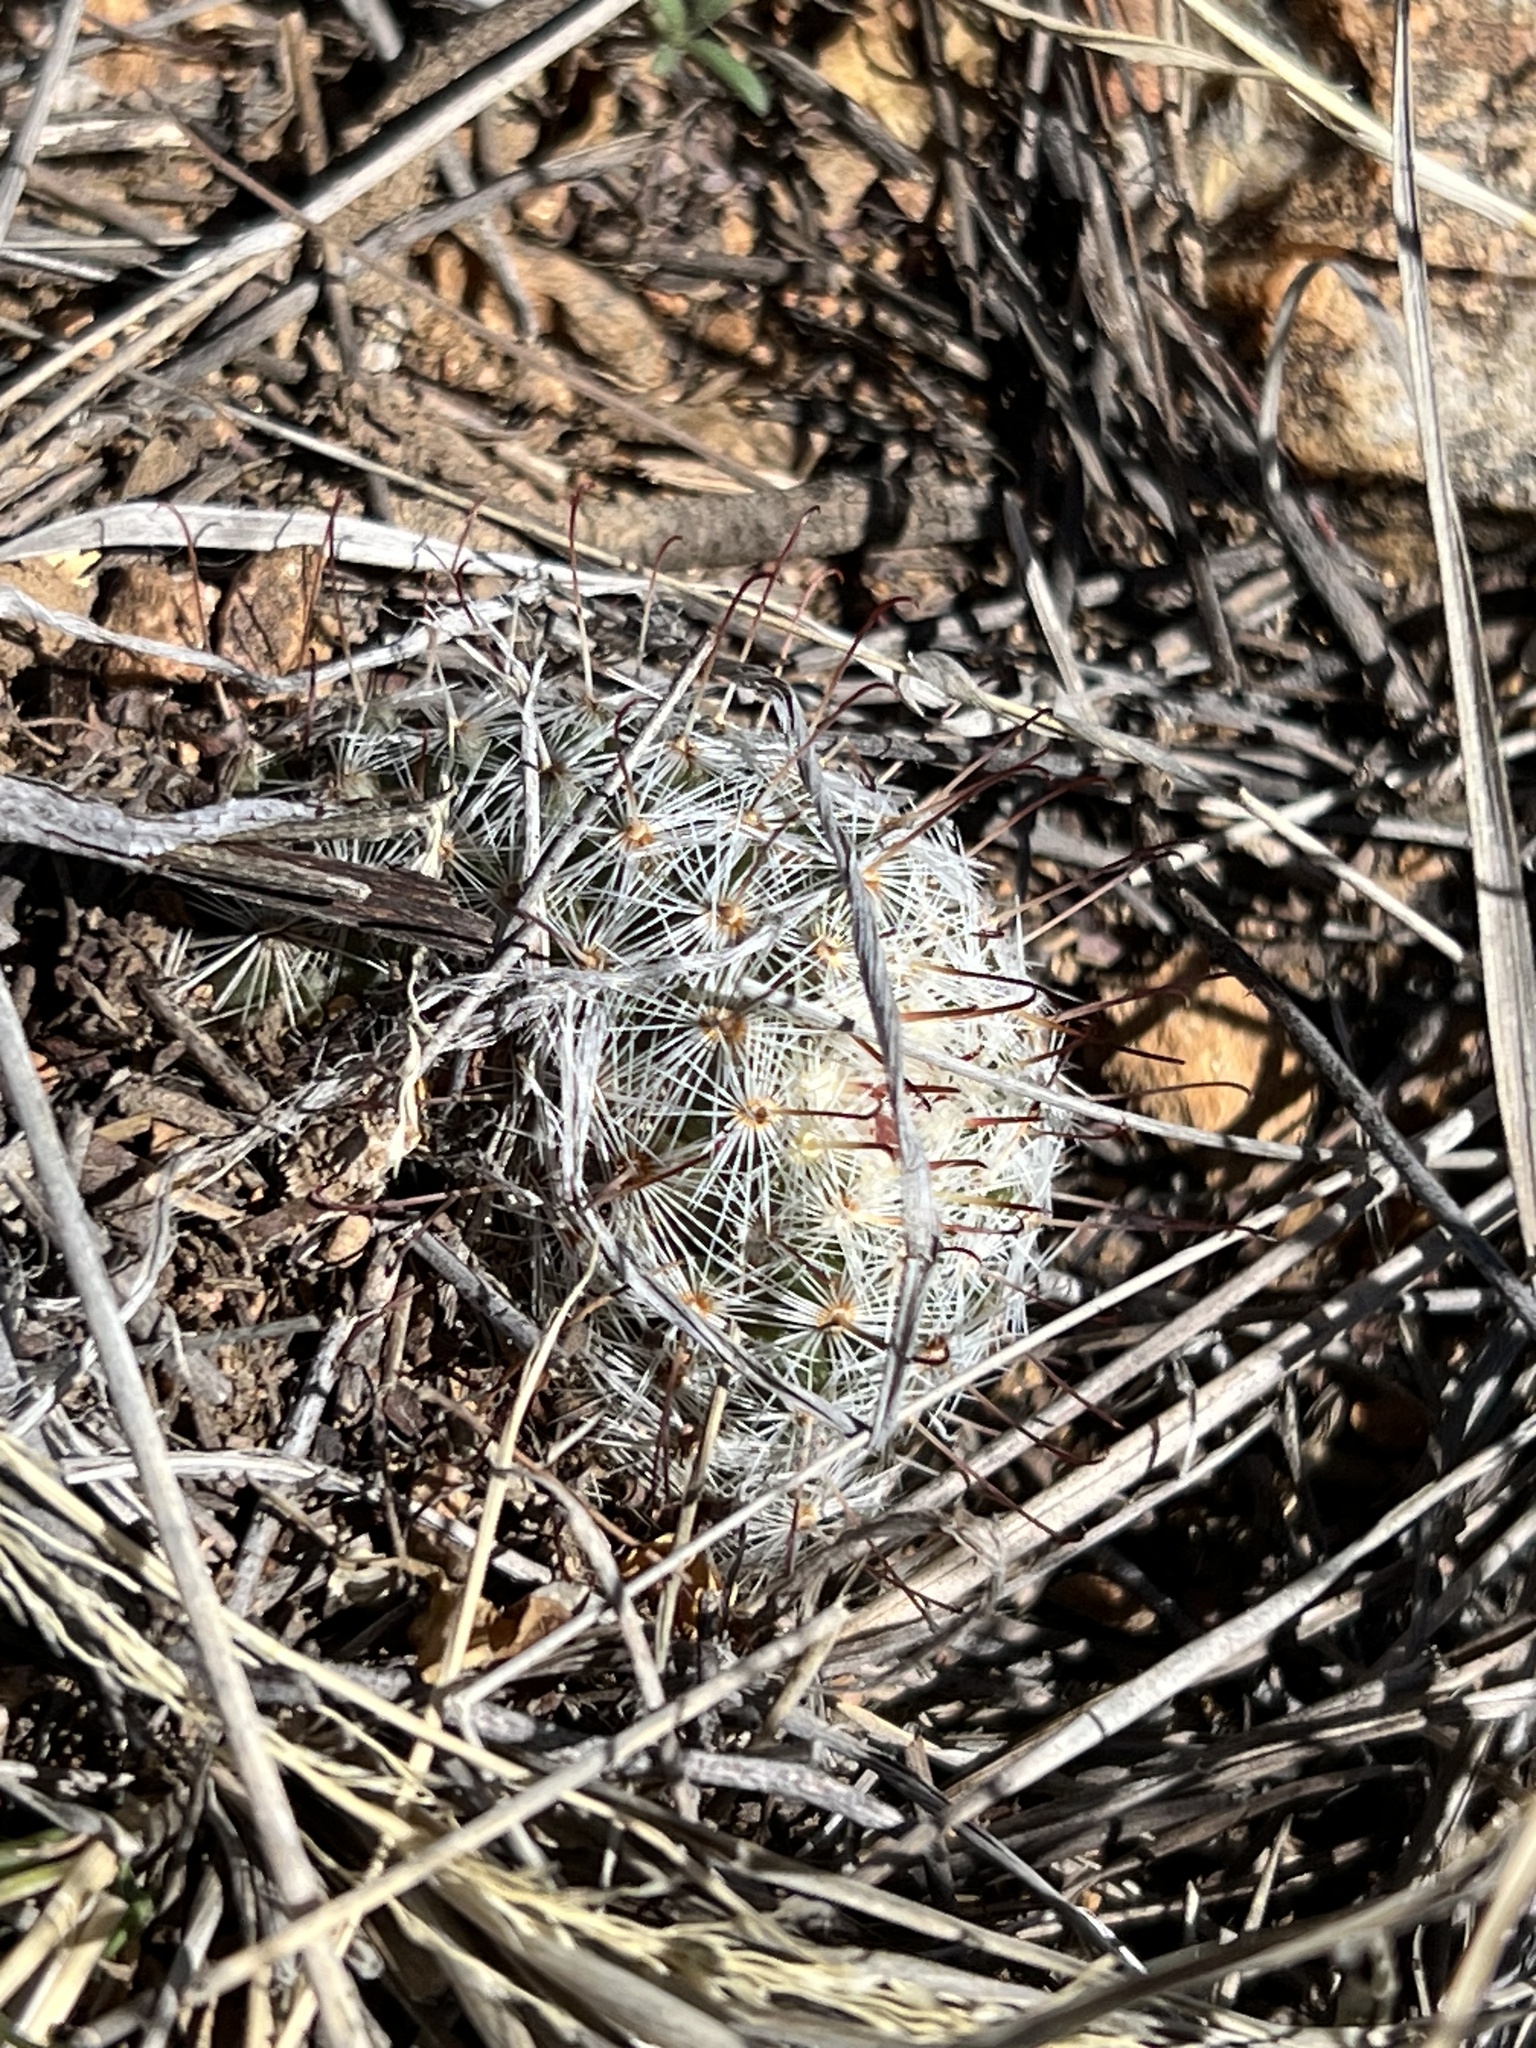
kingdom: Plantae
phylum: Tracheophyta
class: Magnoliopsida
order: Caryophyllales
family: Cactaceae
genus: Cochemiea
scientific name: Cochemiea grahamii
